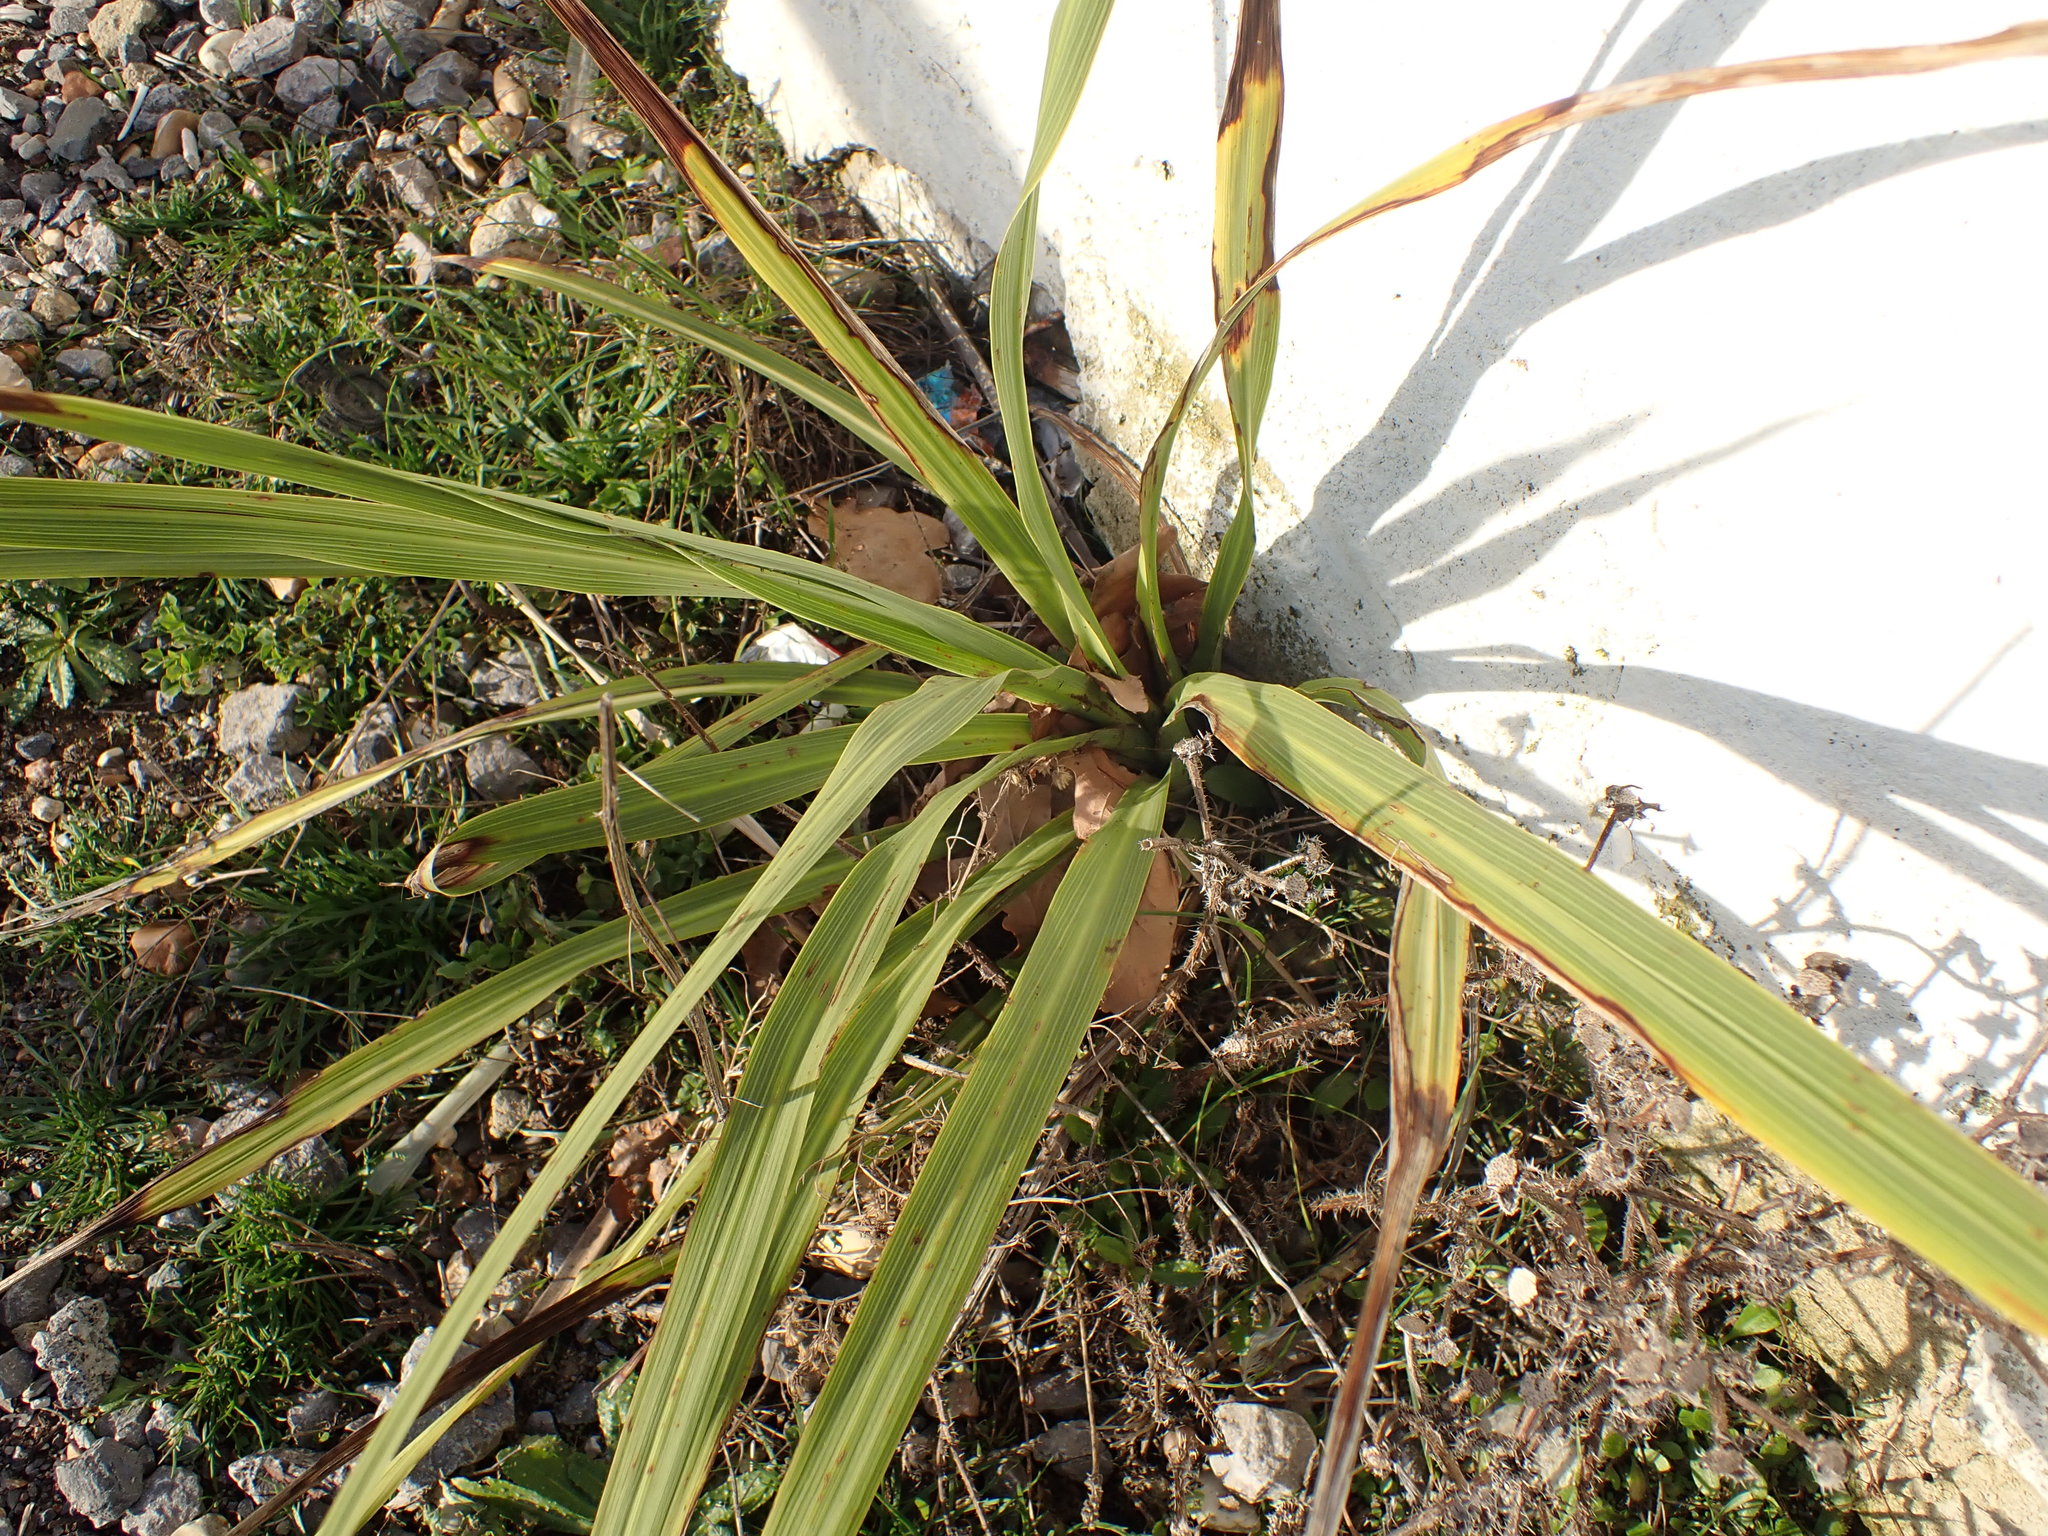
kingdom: Plantae
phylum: Tracheophyta
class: Liliopsida
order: Asparagales
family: Asparagaceae
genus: Cordyline
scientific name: Cordyline australis
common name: Cabbage-palm
